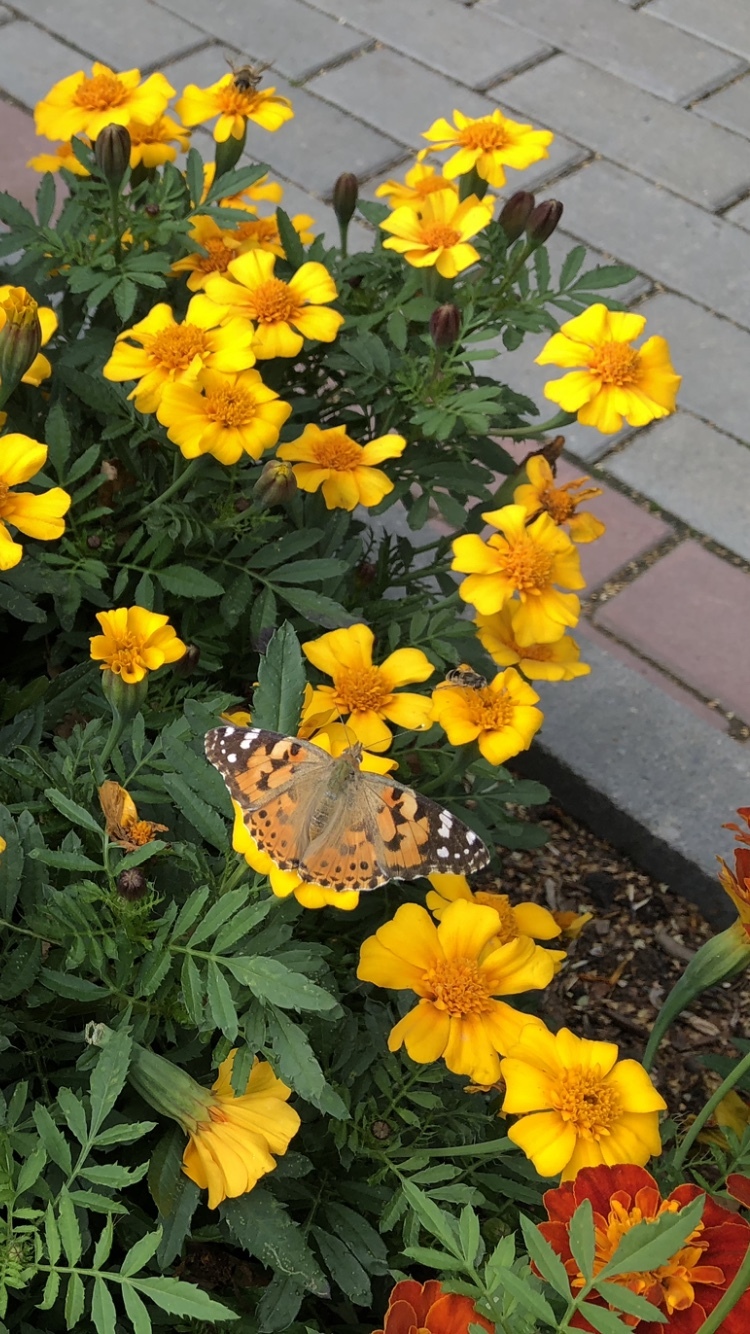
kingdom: Animalia
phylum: Arthropoda
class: Insecta
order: Lepidoptera
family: Nymphalidae
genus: Vanessa
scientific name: Vanessa cardui
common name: Painted lady
